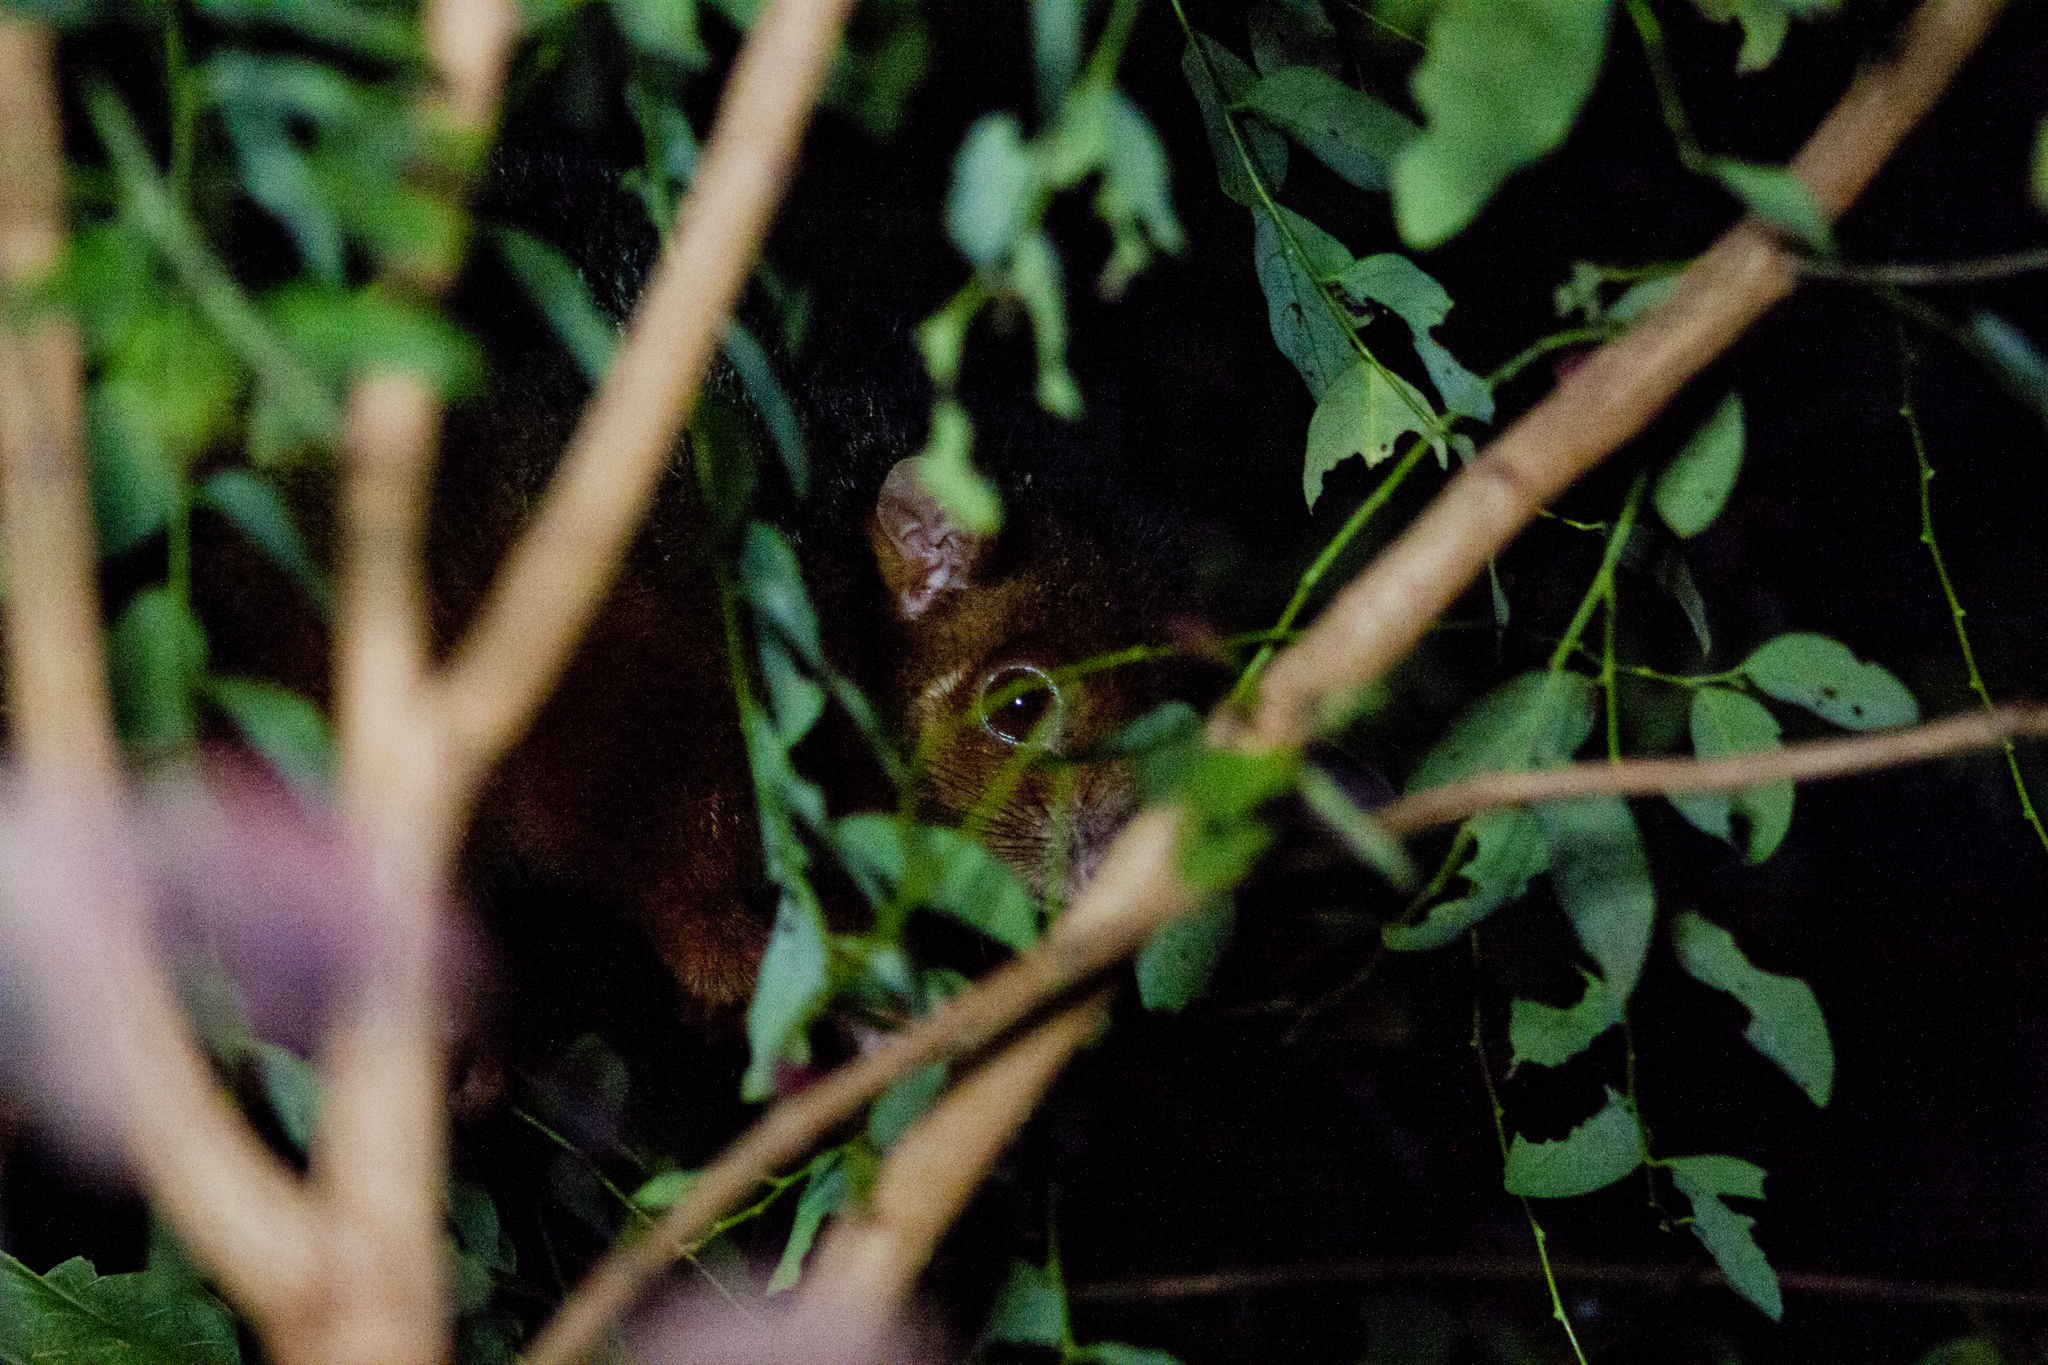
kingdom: Animalia
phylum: Chordata
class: Mammalia
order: Diprotodontia
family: Pseudocheiridae
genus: Pseudocheirus
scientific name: Pseudocheirus peregrinus
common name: Common ringtail possum
